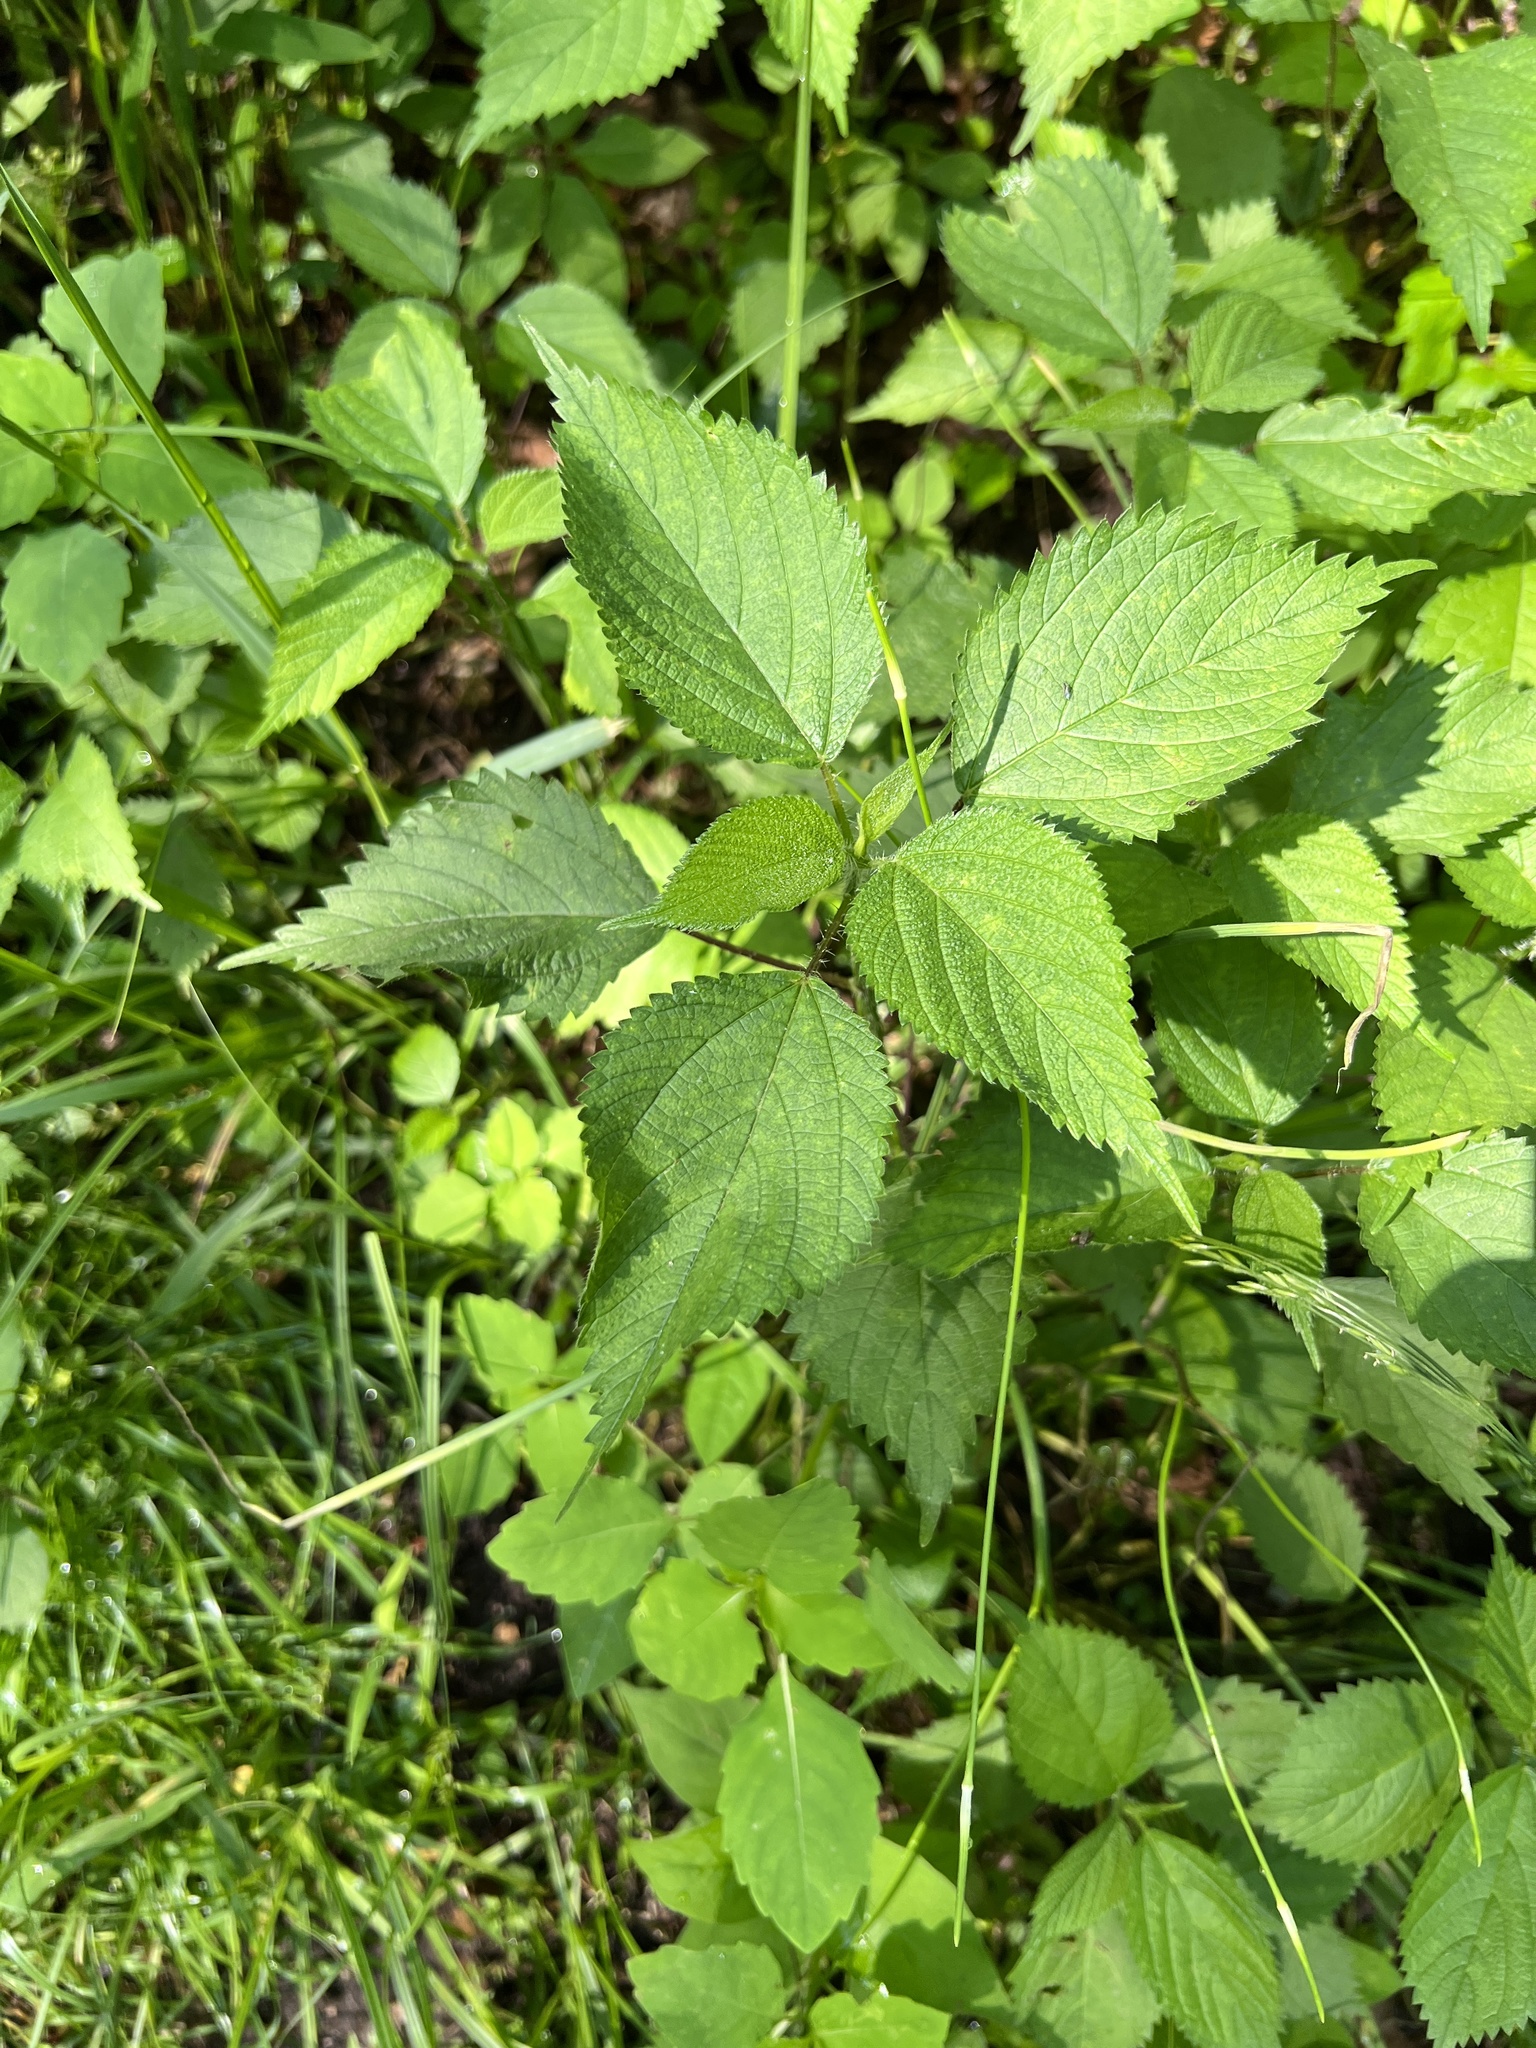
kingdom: Plantae
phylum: Tracheophyta
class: Magnoliopsida
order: Rosales
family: Urticaceae
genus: Laportea
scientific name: Laportea canadensis
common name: Canada nettle
